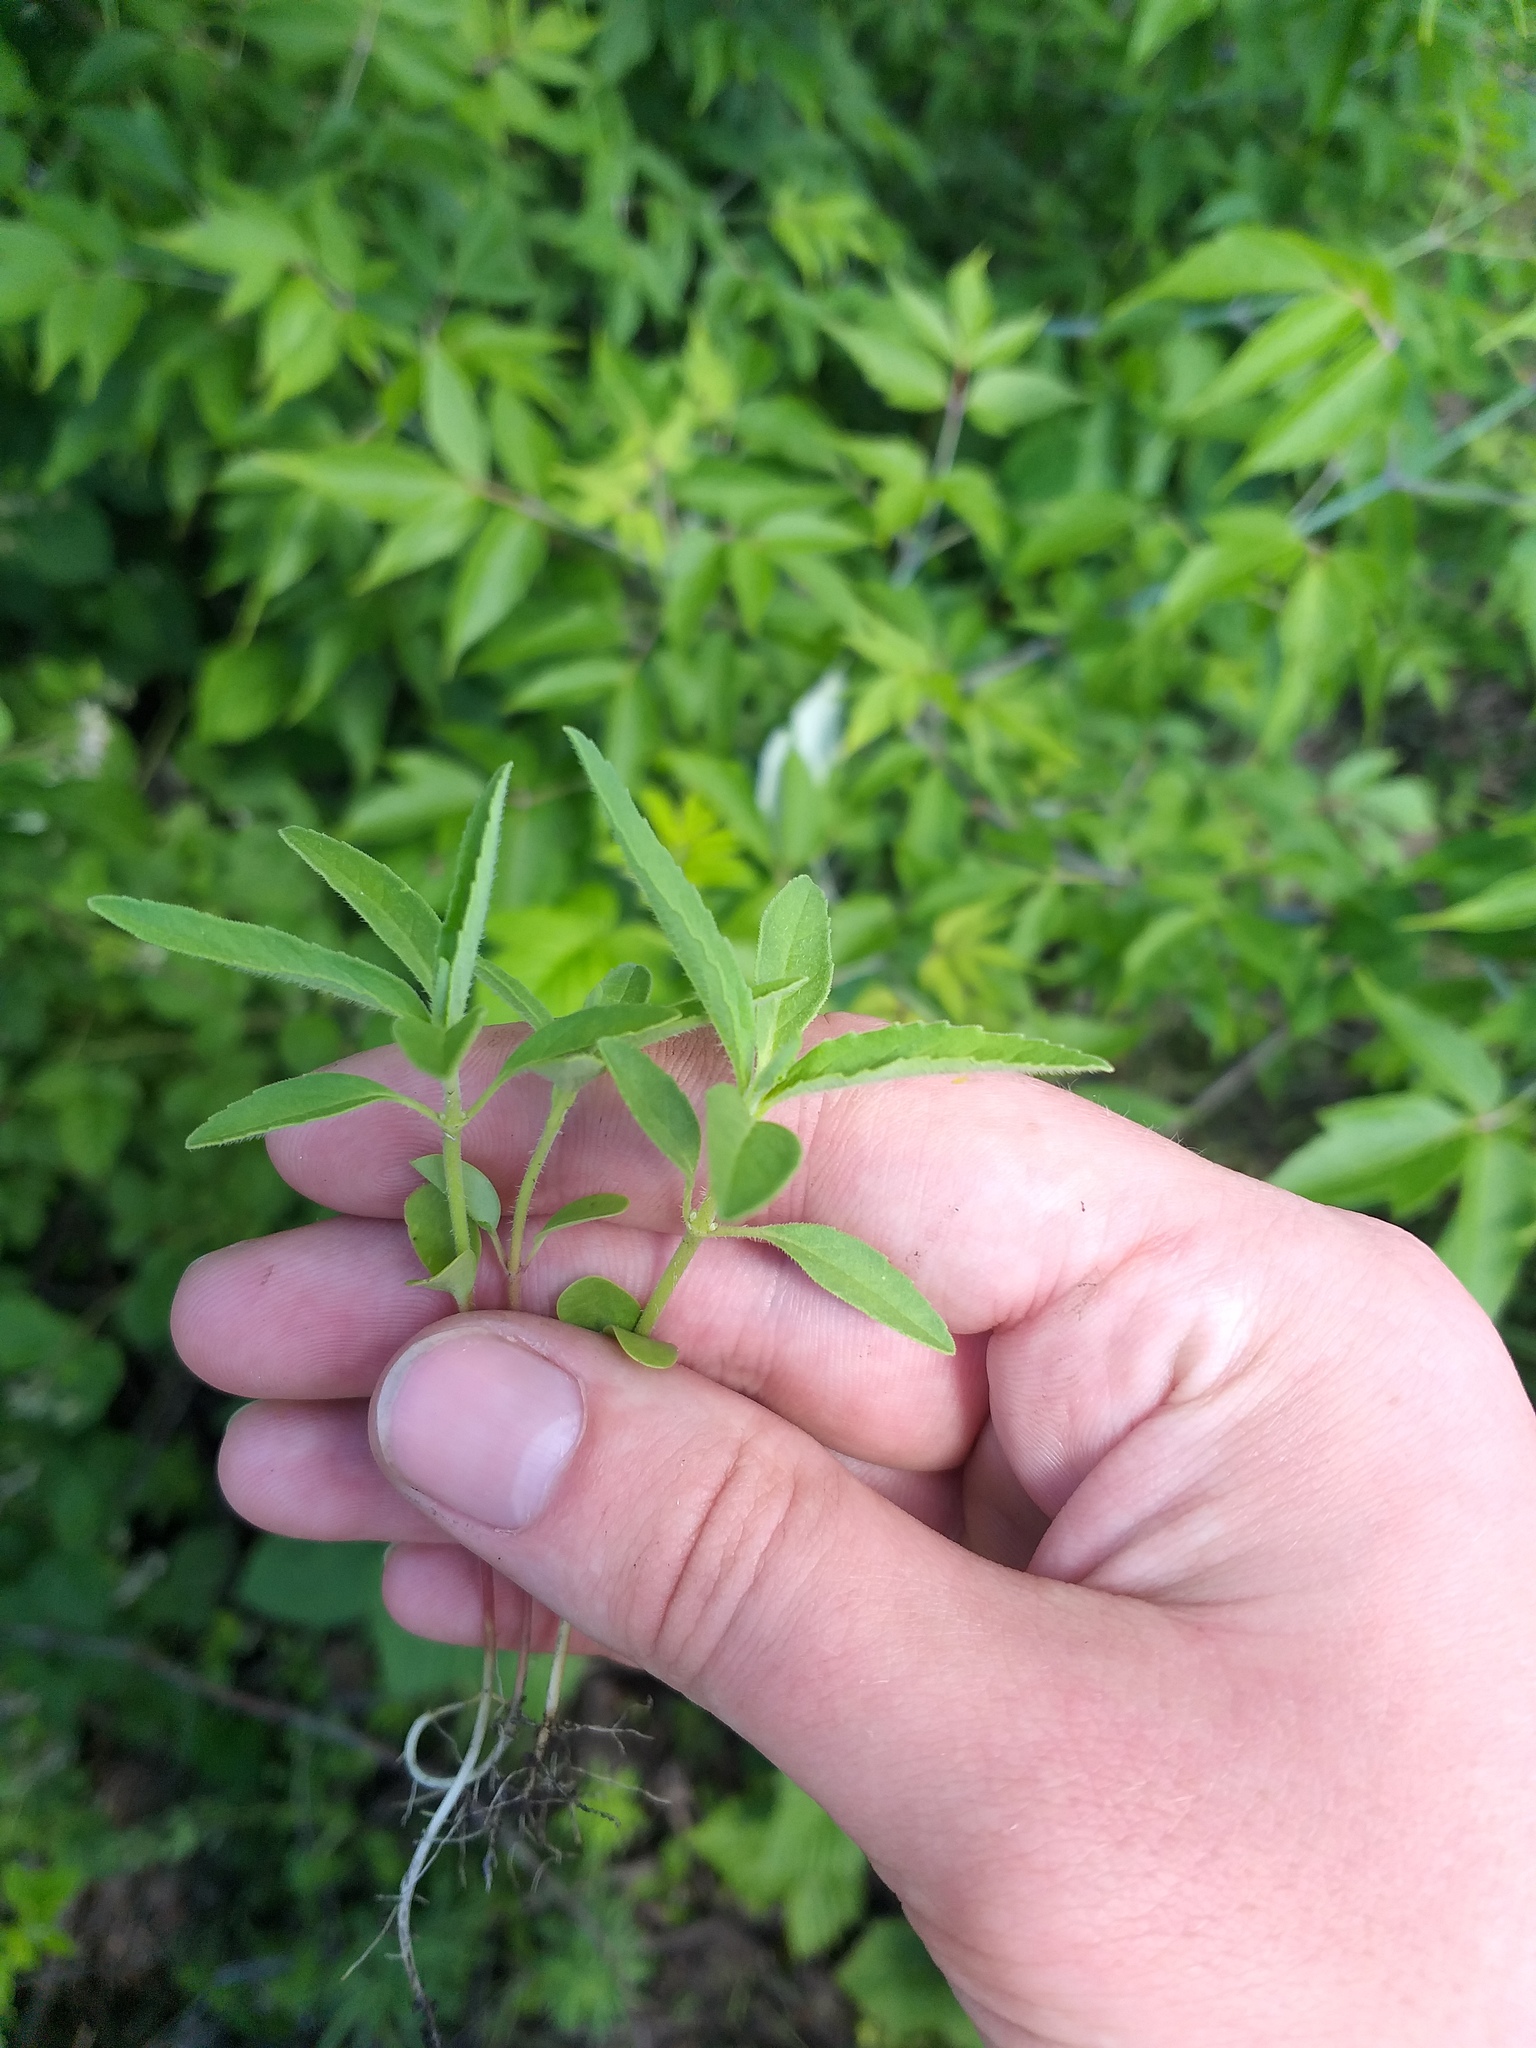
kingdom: Plantae
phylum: Tracheophyta
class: Magnoliopsida
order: Malpighiales
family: Euphorbiaceae
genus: Euphorbia
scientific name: Euphorbia davidii
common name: David's spurge
